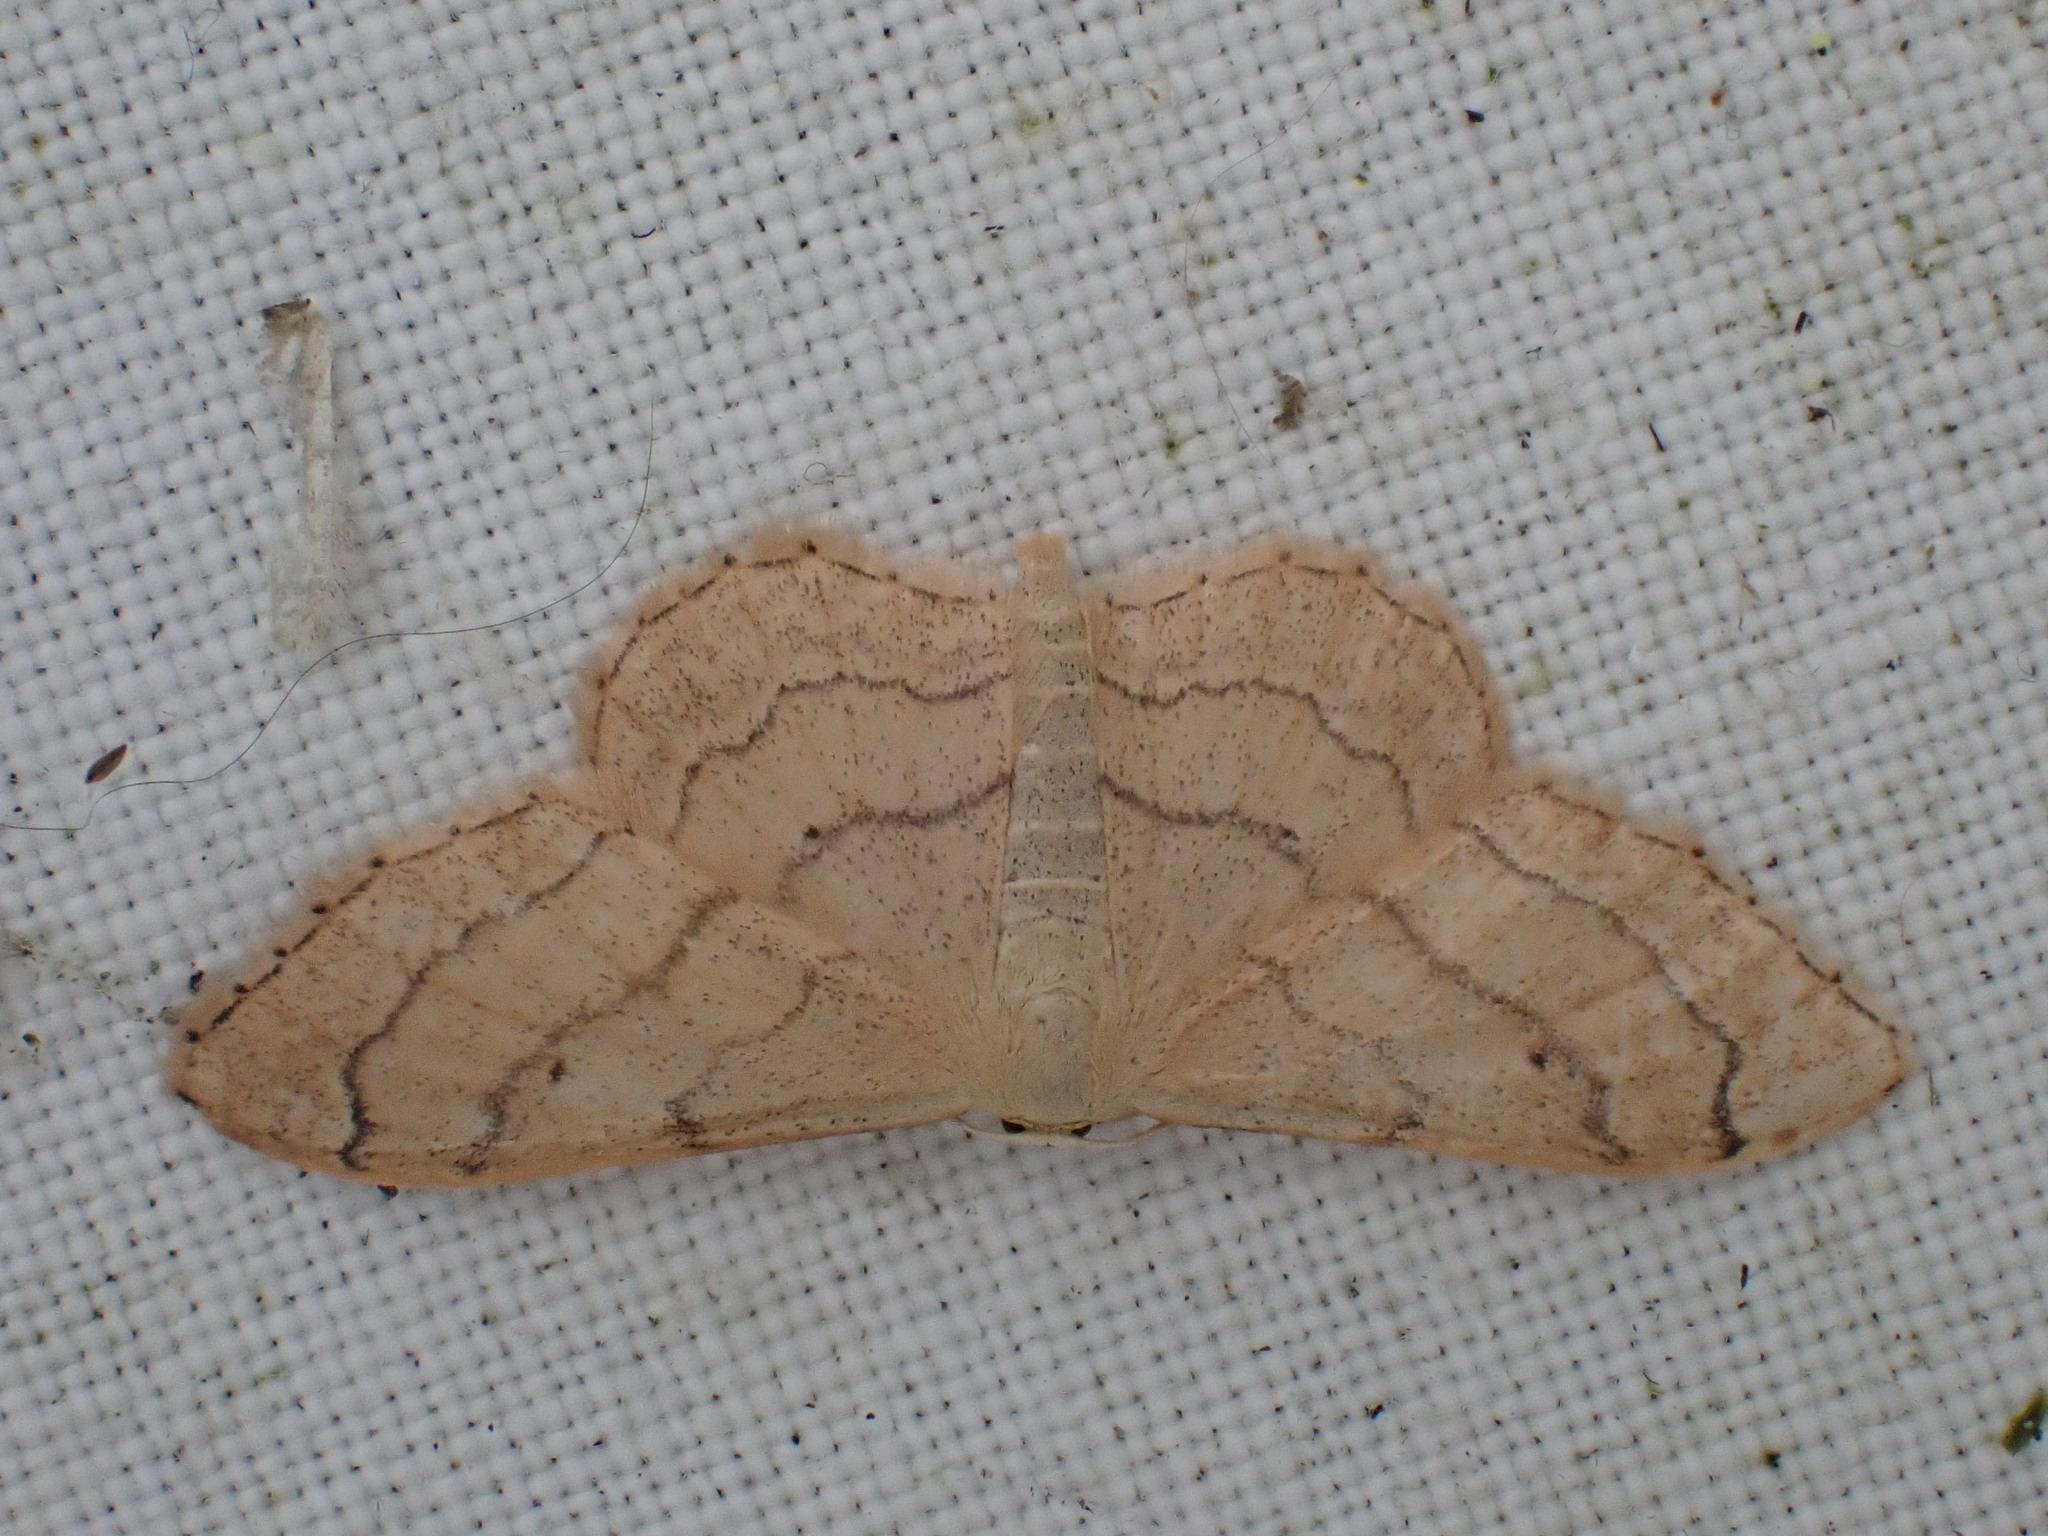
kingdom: Animalia
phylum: Arthropoda
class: Insecta
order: Lepidoptera
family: Geometridae
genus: Idaea
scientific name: Idaea aversata
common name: Riband wave
